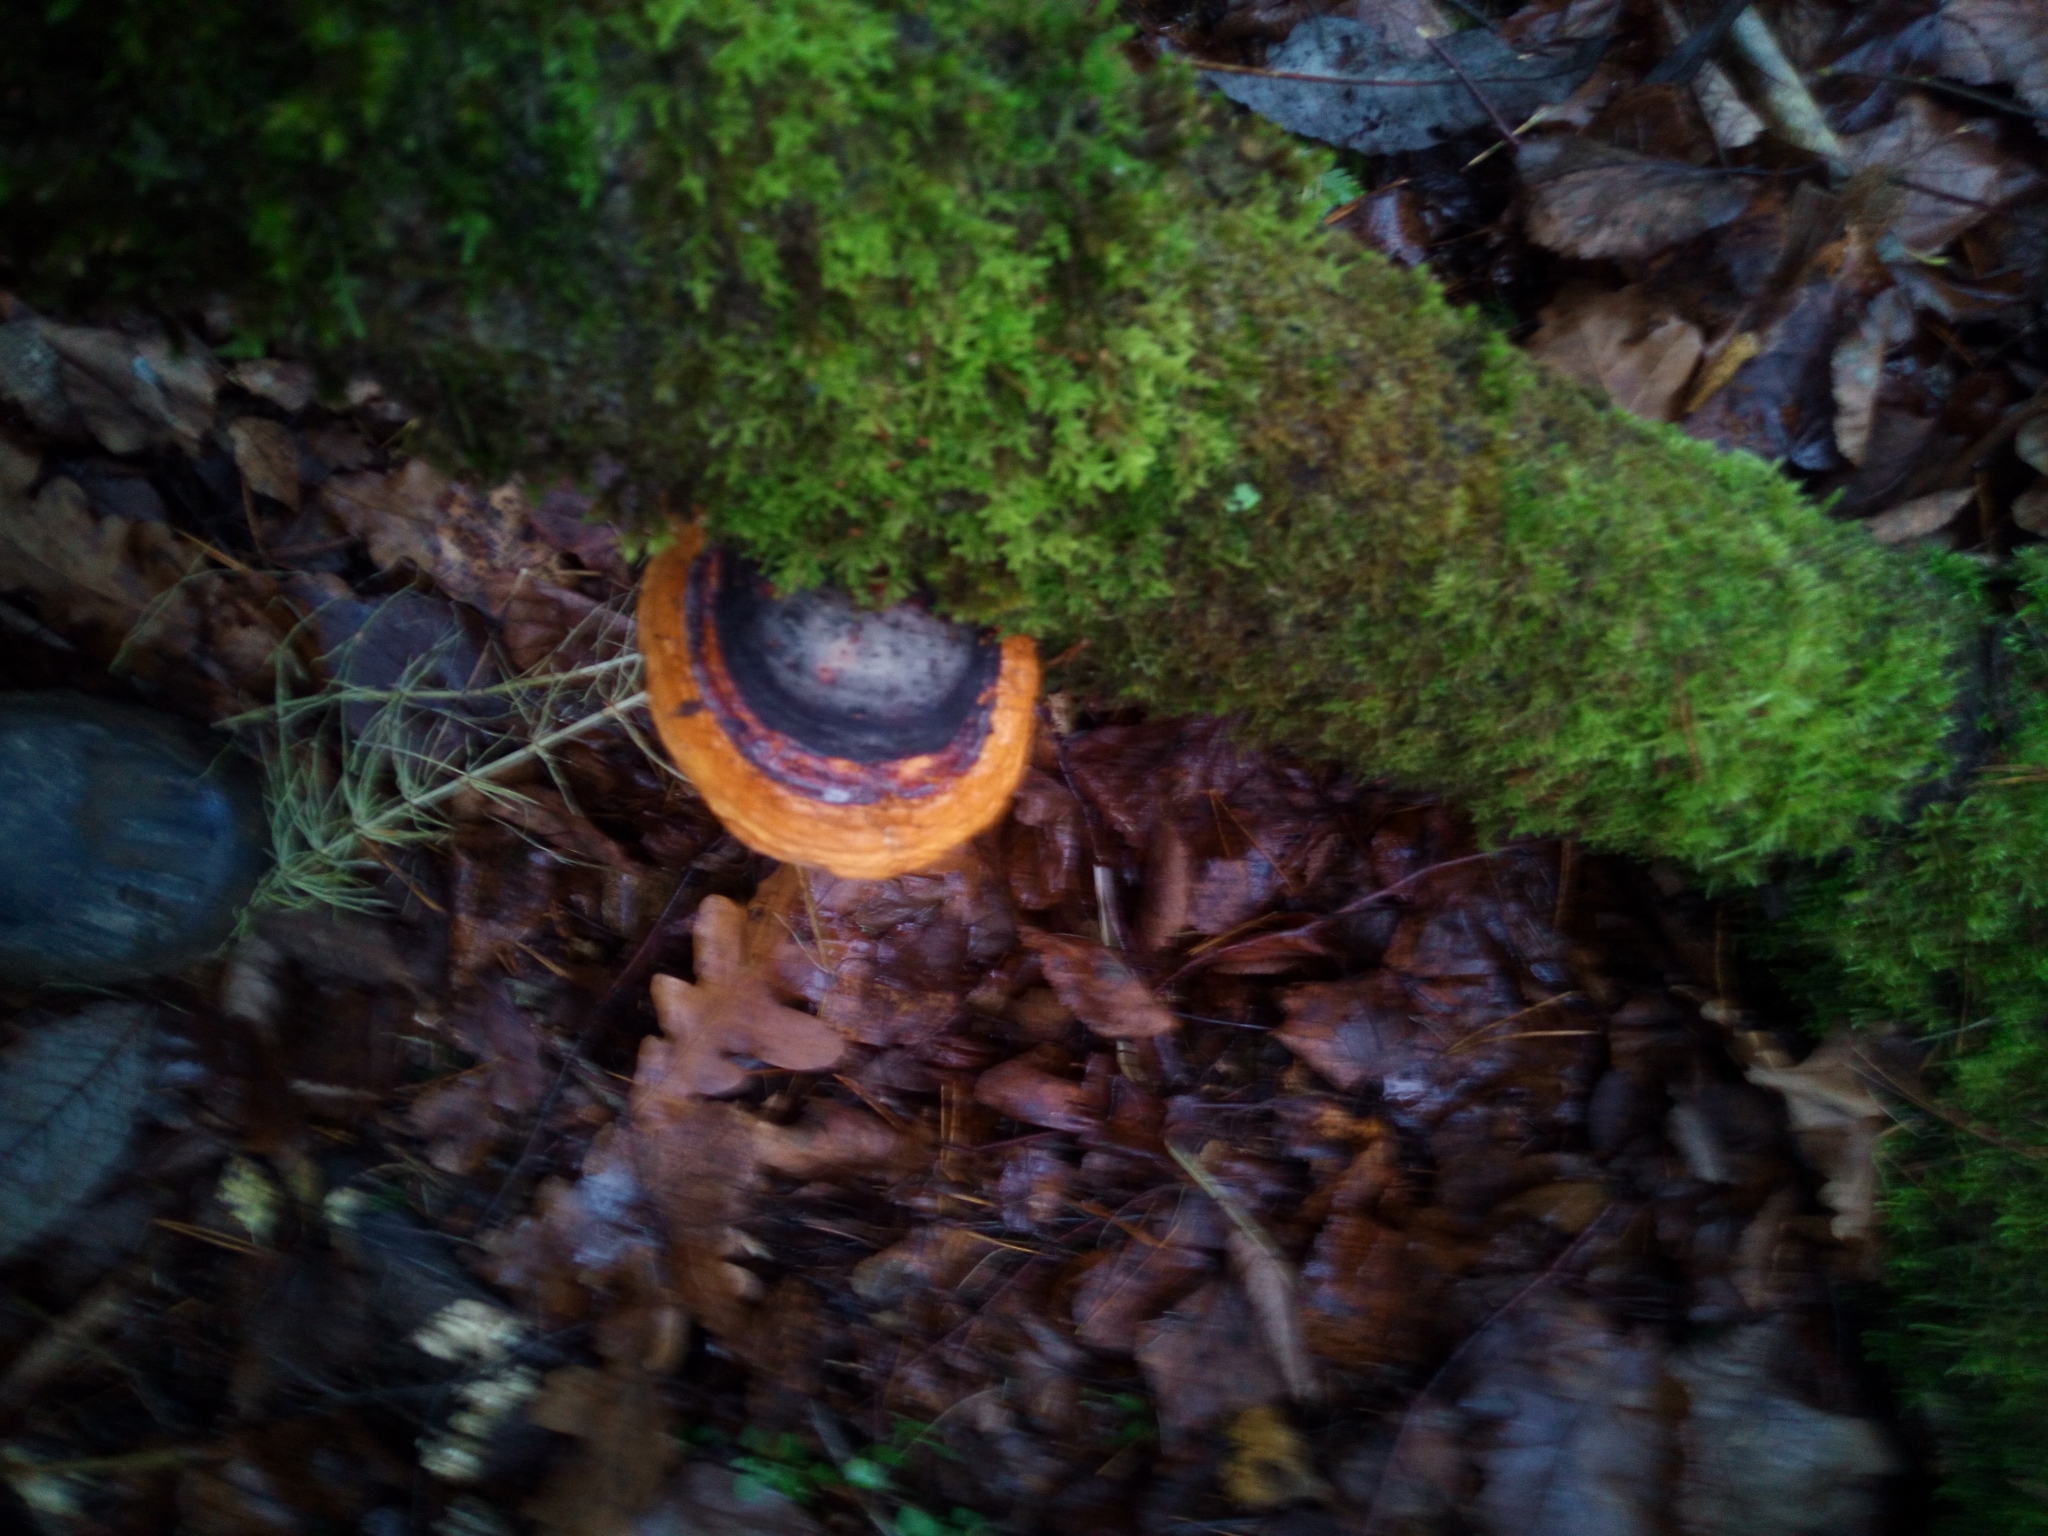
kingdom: Fungi
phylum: Basidiomycota
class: Agaricomycetes
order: Polyporales
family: Fomitopsidaceae
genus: Fomitopsis
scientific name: Fomitopsis pinicola
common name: Red-belted bracket
